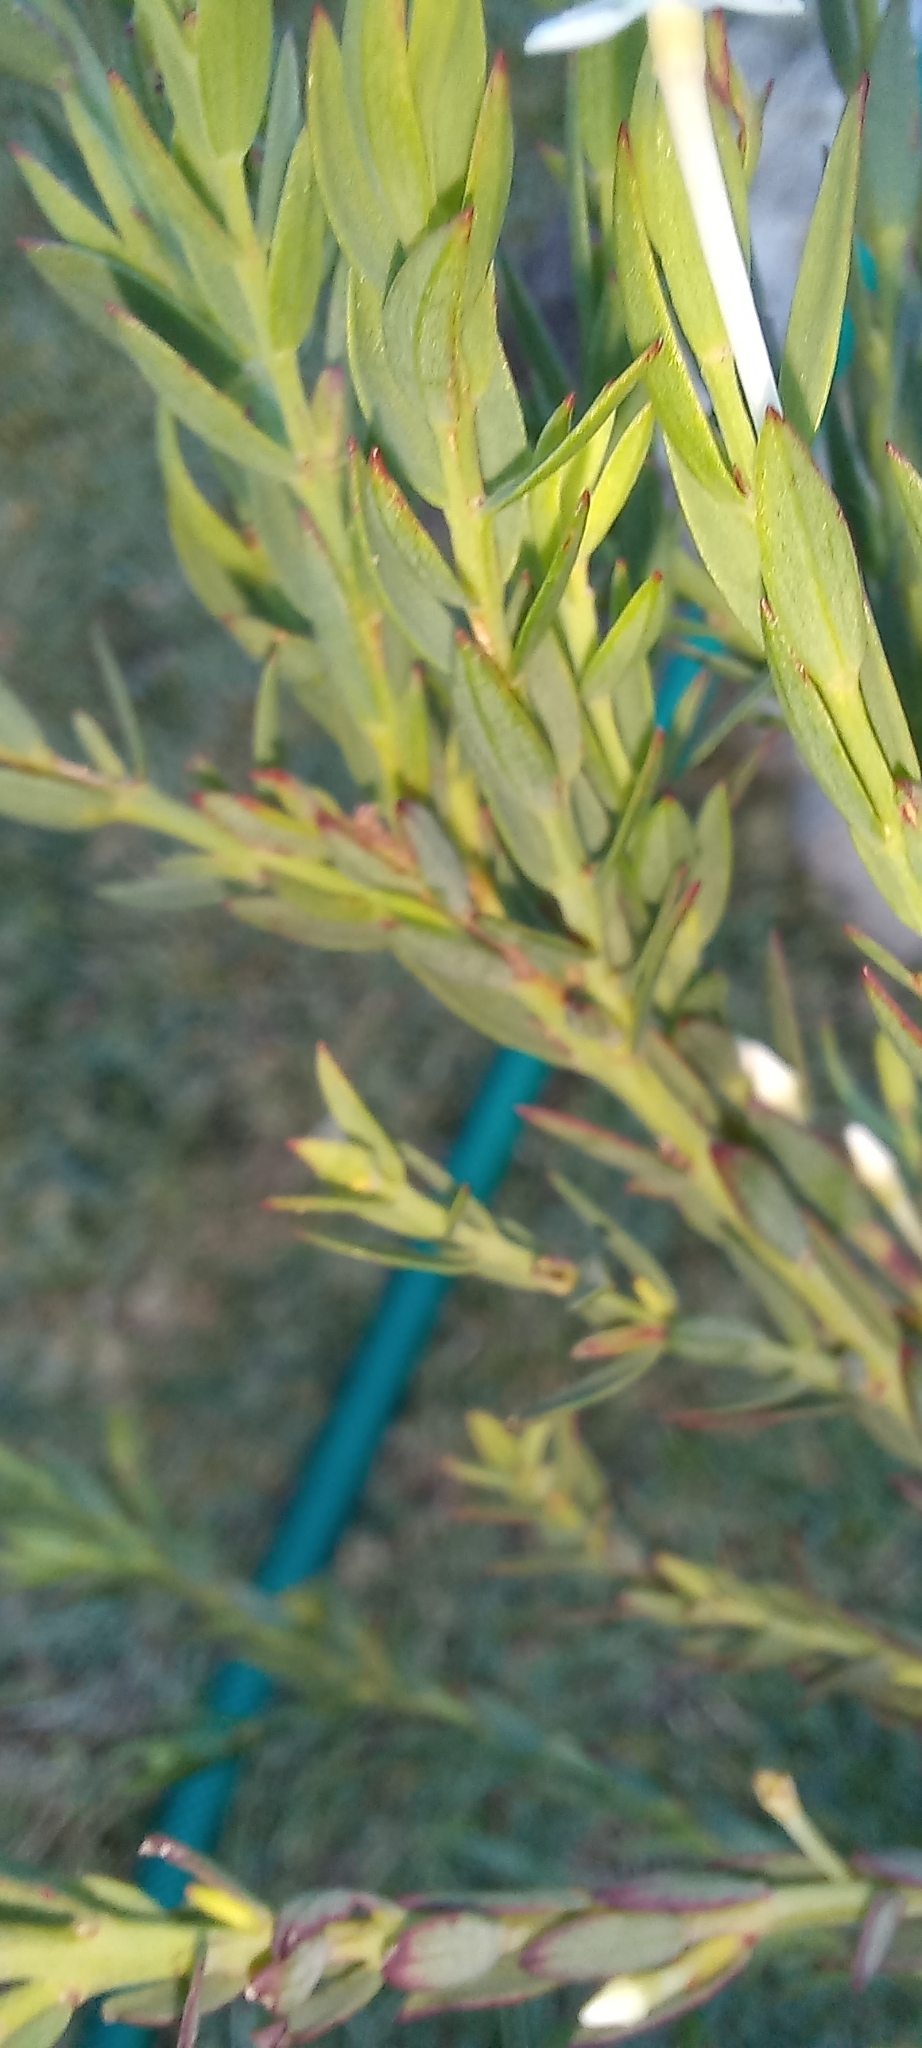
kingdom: Plantae
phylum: Tracheophyta
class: Magnoliopsida
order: Malvales
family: Thymelaeaceae
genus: Struthiola
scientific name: Struthiola myrsinites
